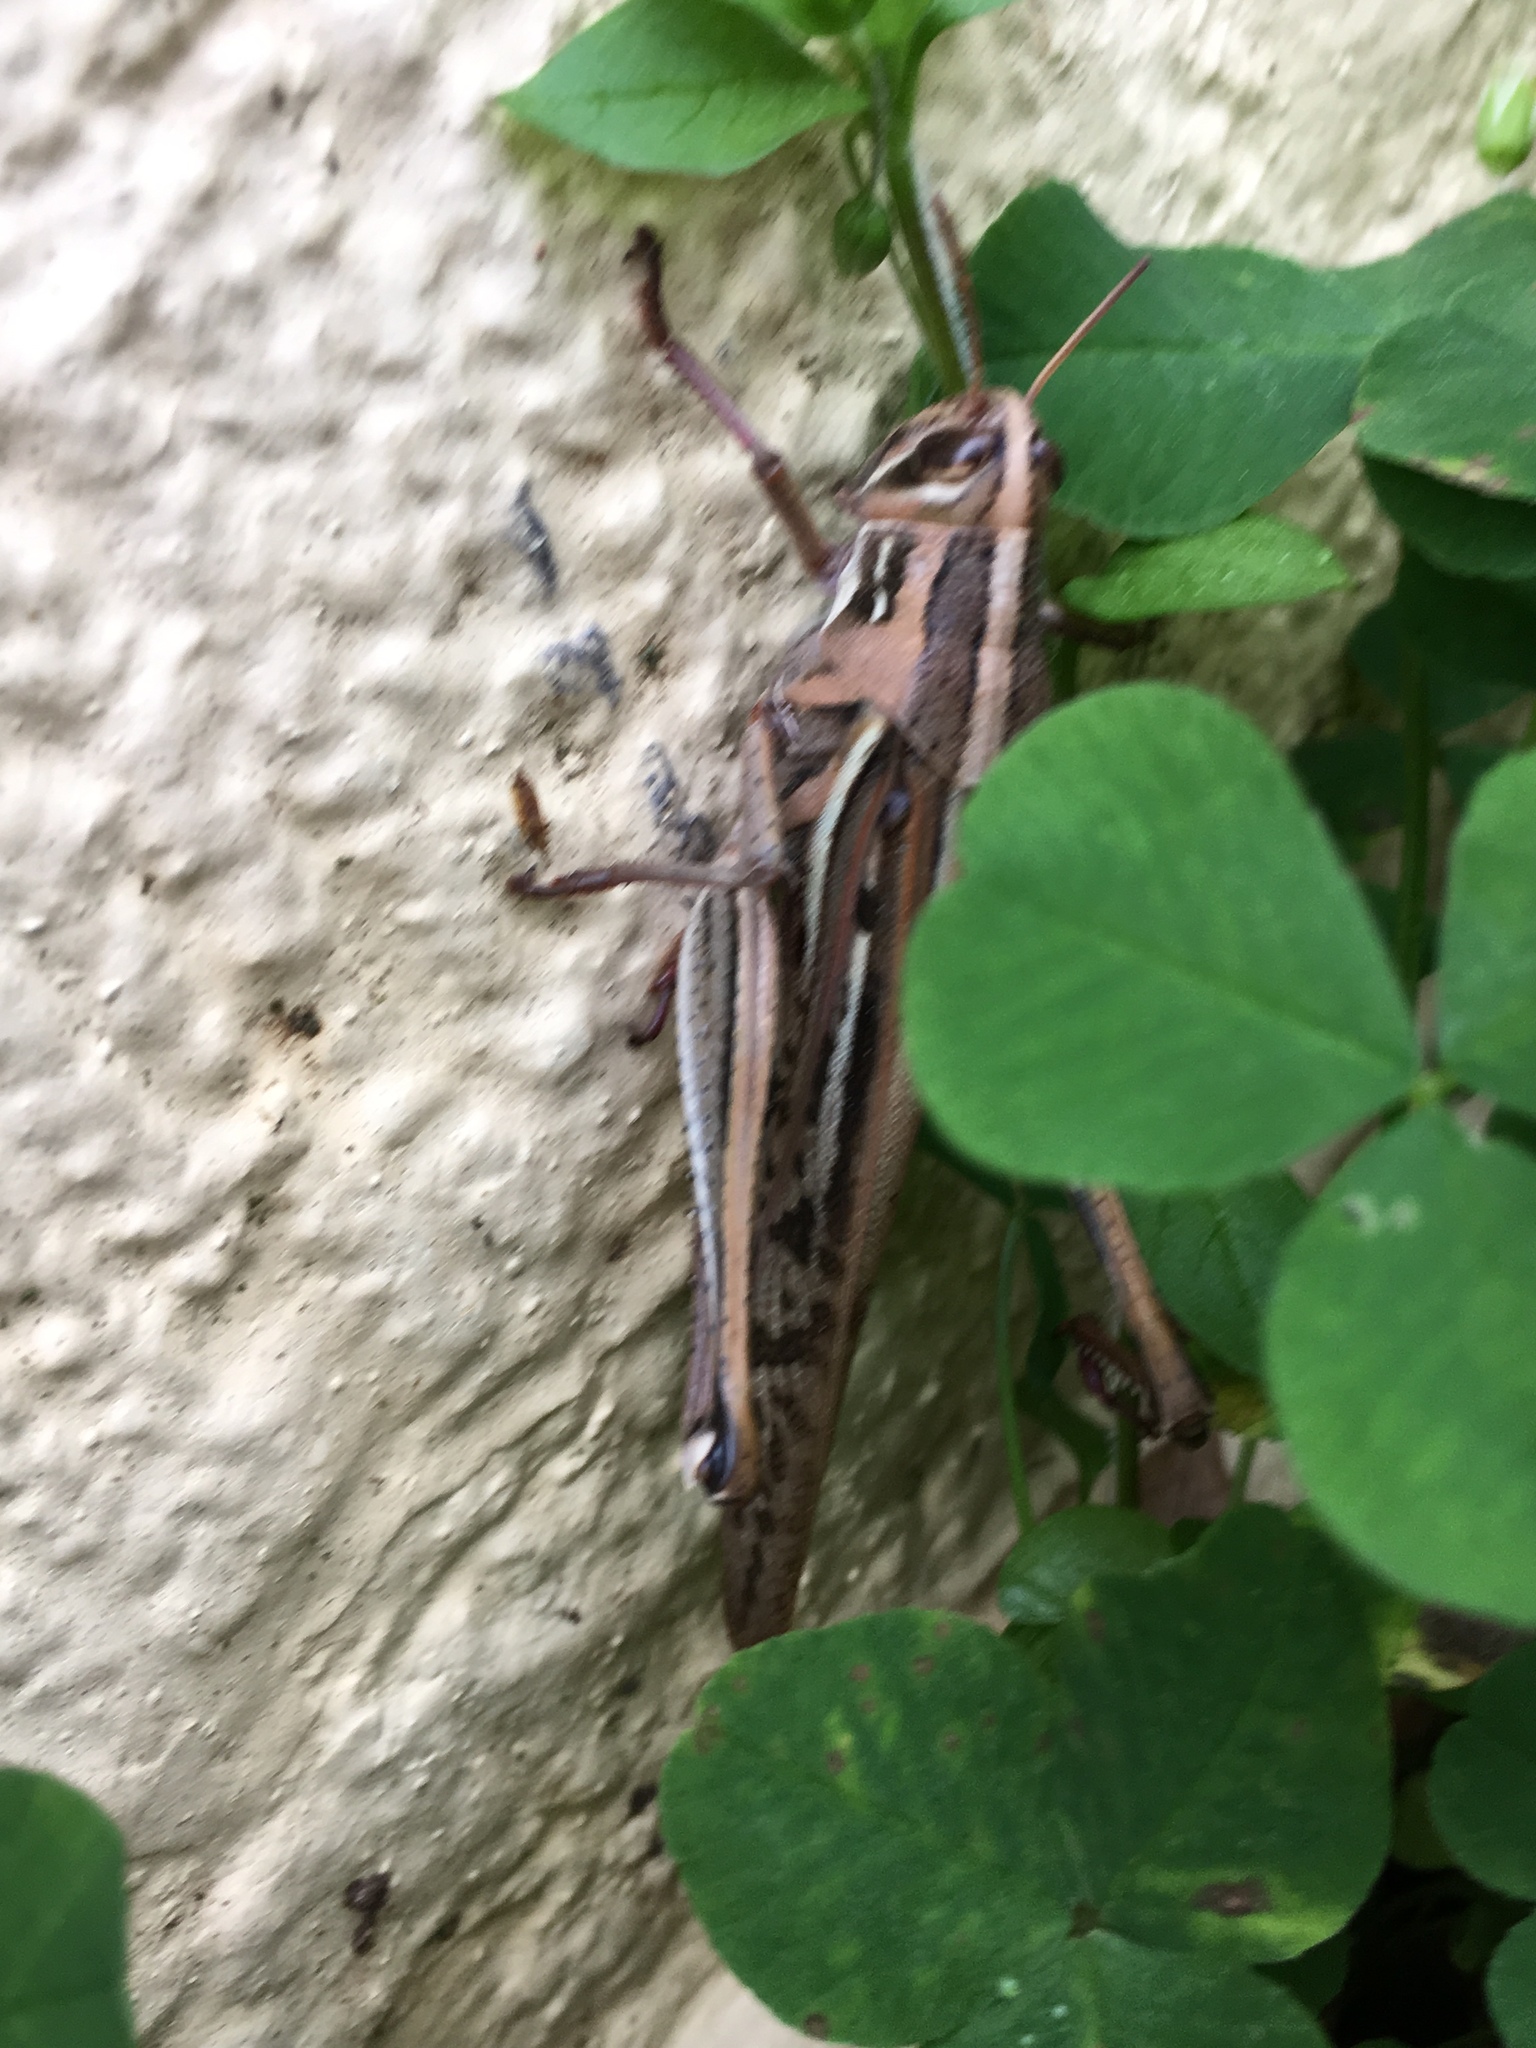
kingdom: Animalia
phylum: Arthropoda
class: Insecta
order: Orthoptera
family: Acrididae
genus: Schistocerca
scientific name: Schistocerca americana
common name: American bird locust
